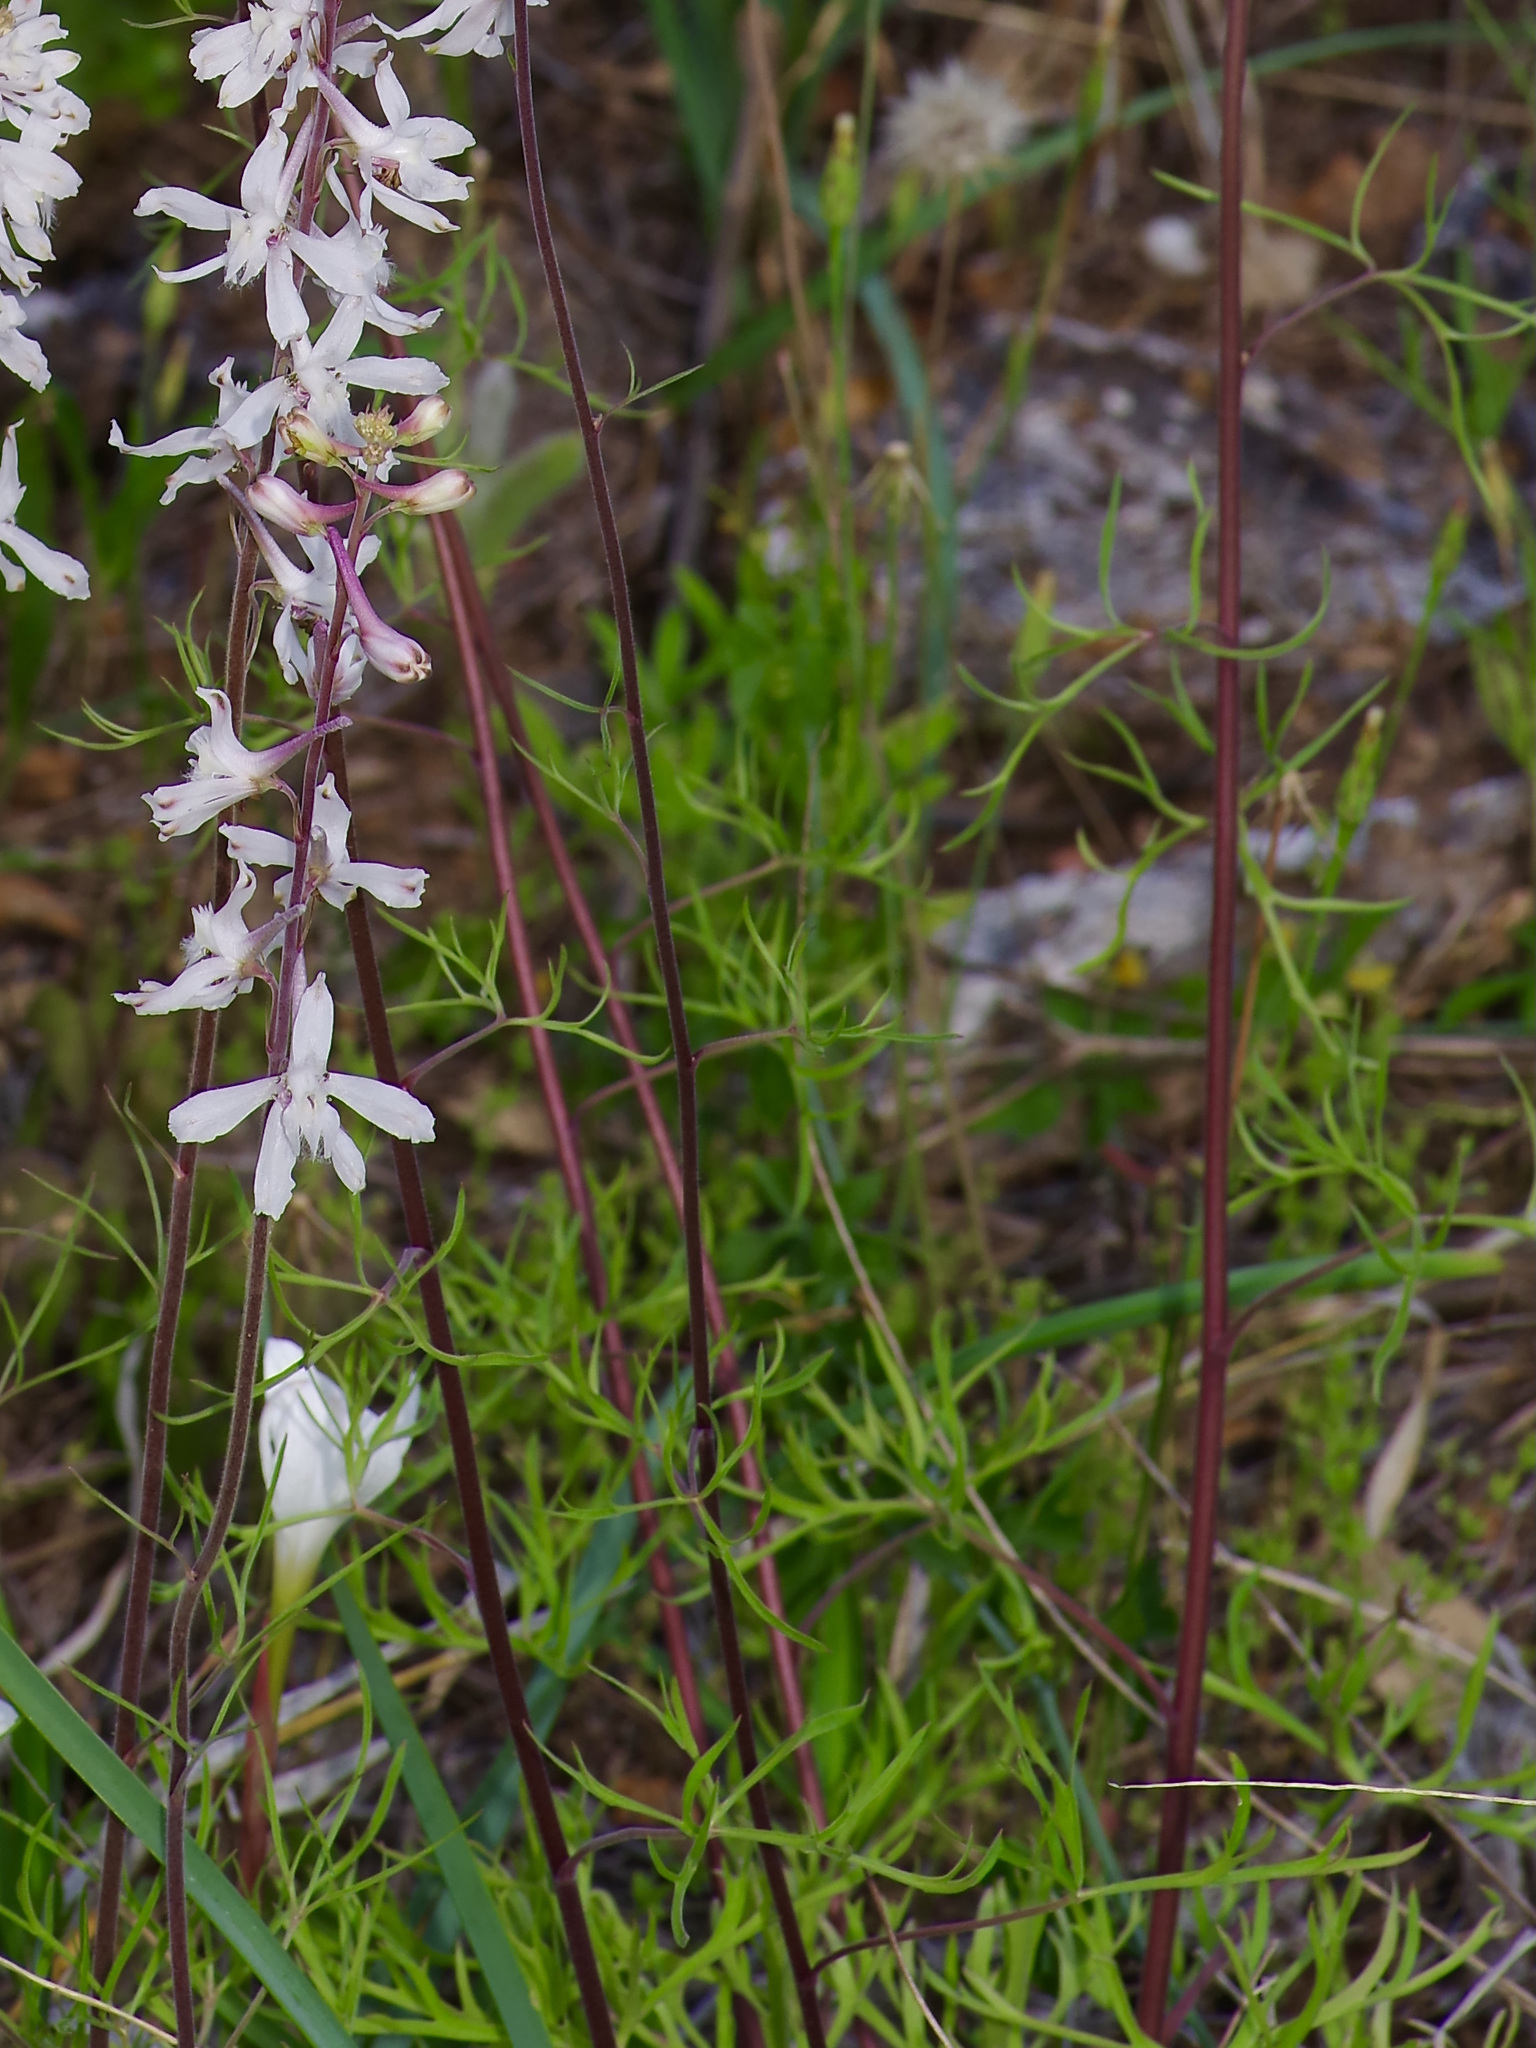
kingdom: Plantae
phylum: Tracheophyta
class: Magnoliopsida
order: Ranunculales
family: Ranunculaceae
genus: Delphinium
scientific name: Delphinium carolinianum
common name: Carolina larkspur
